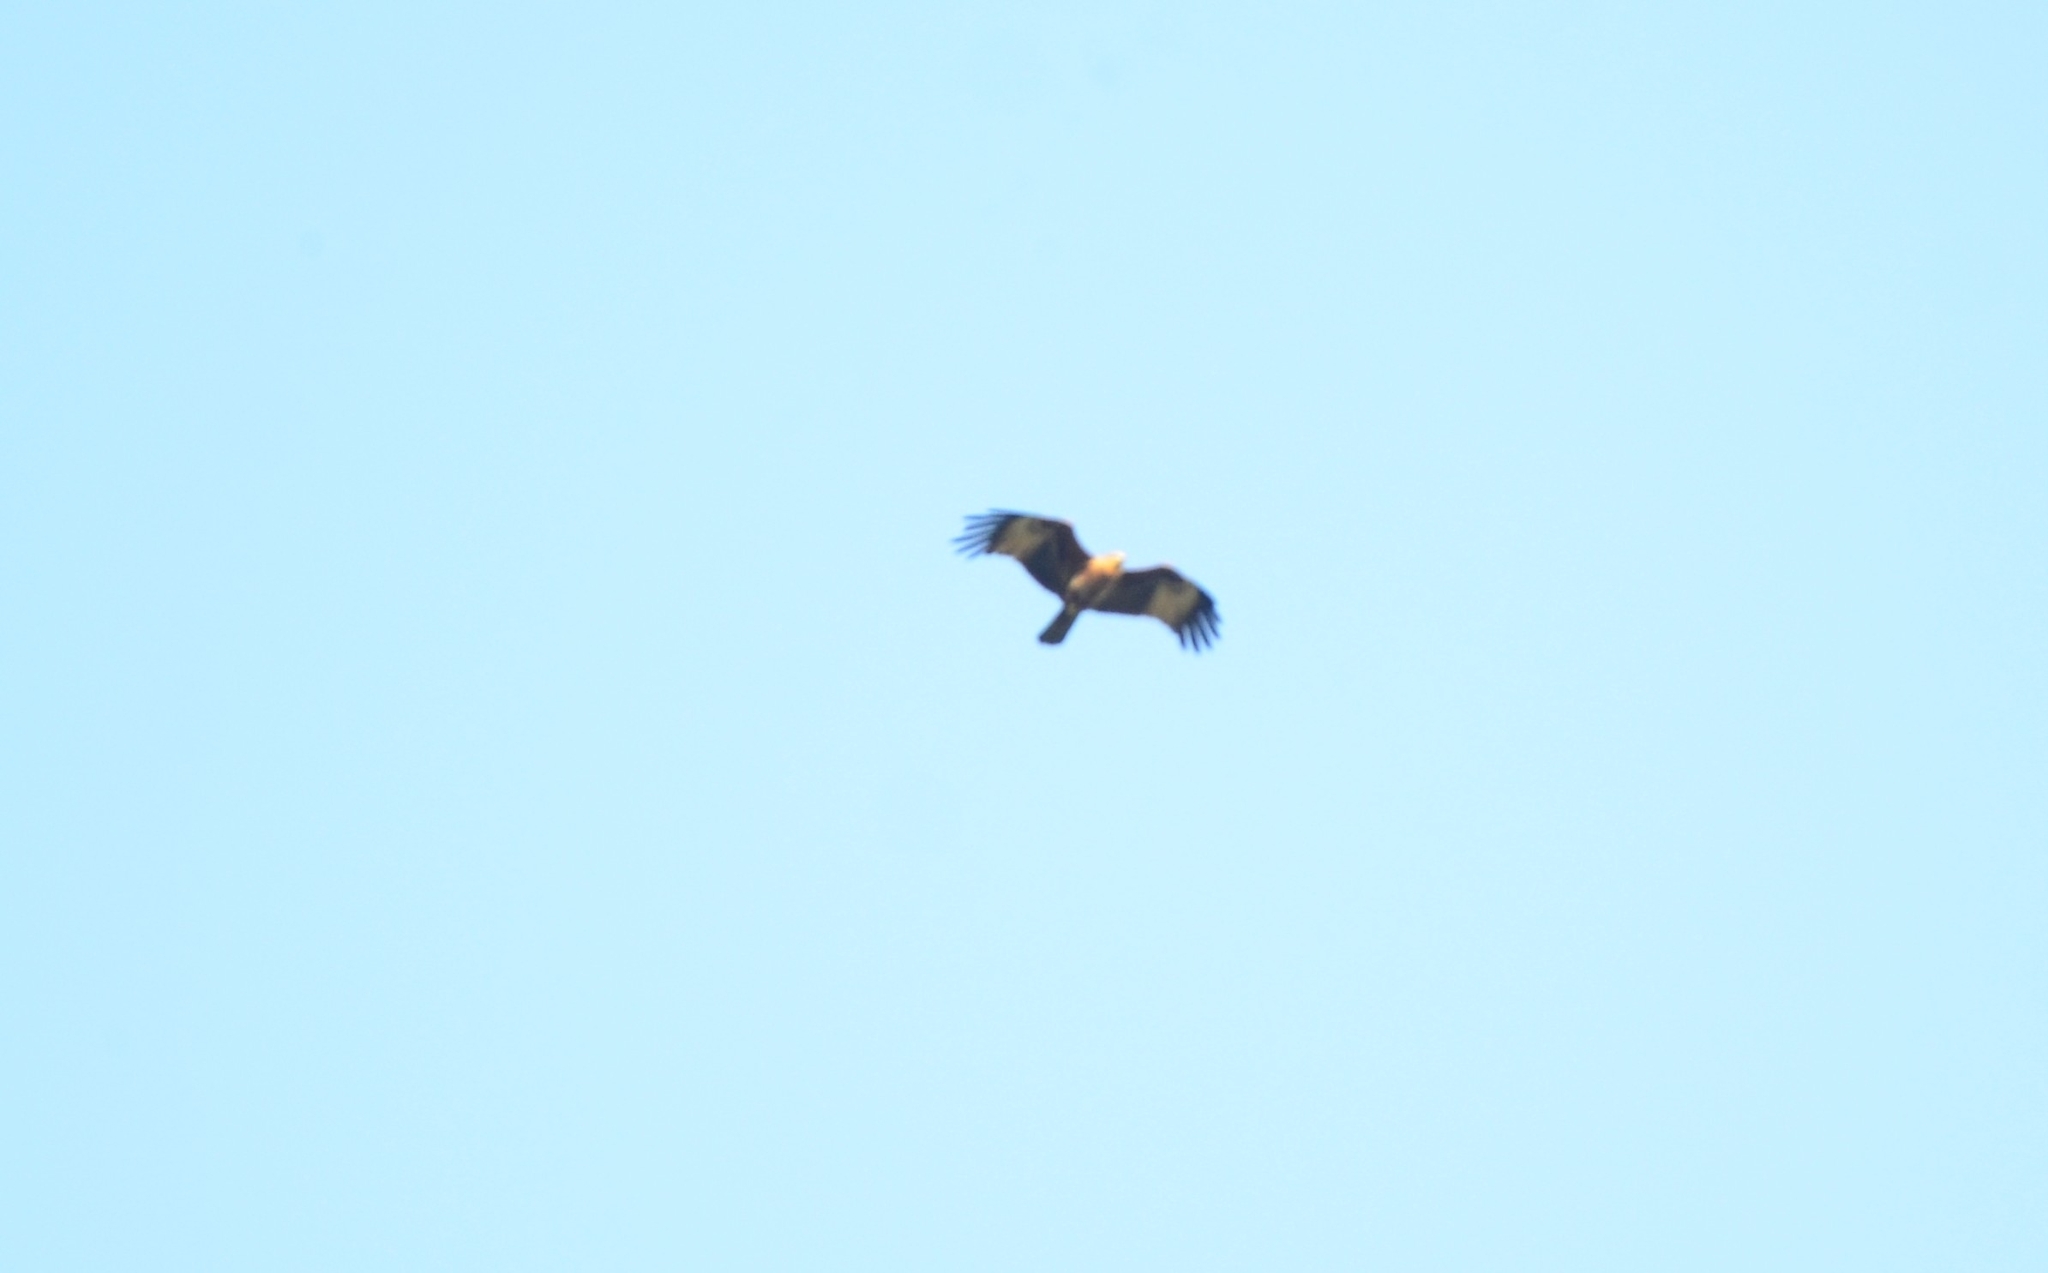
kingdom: Animalia
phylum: Chordata
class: Aves
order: Accipitriformes
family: Accipitridae
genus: Haliastur
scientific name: Haliastur indus
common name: Brahminy kite
